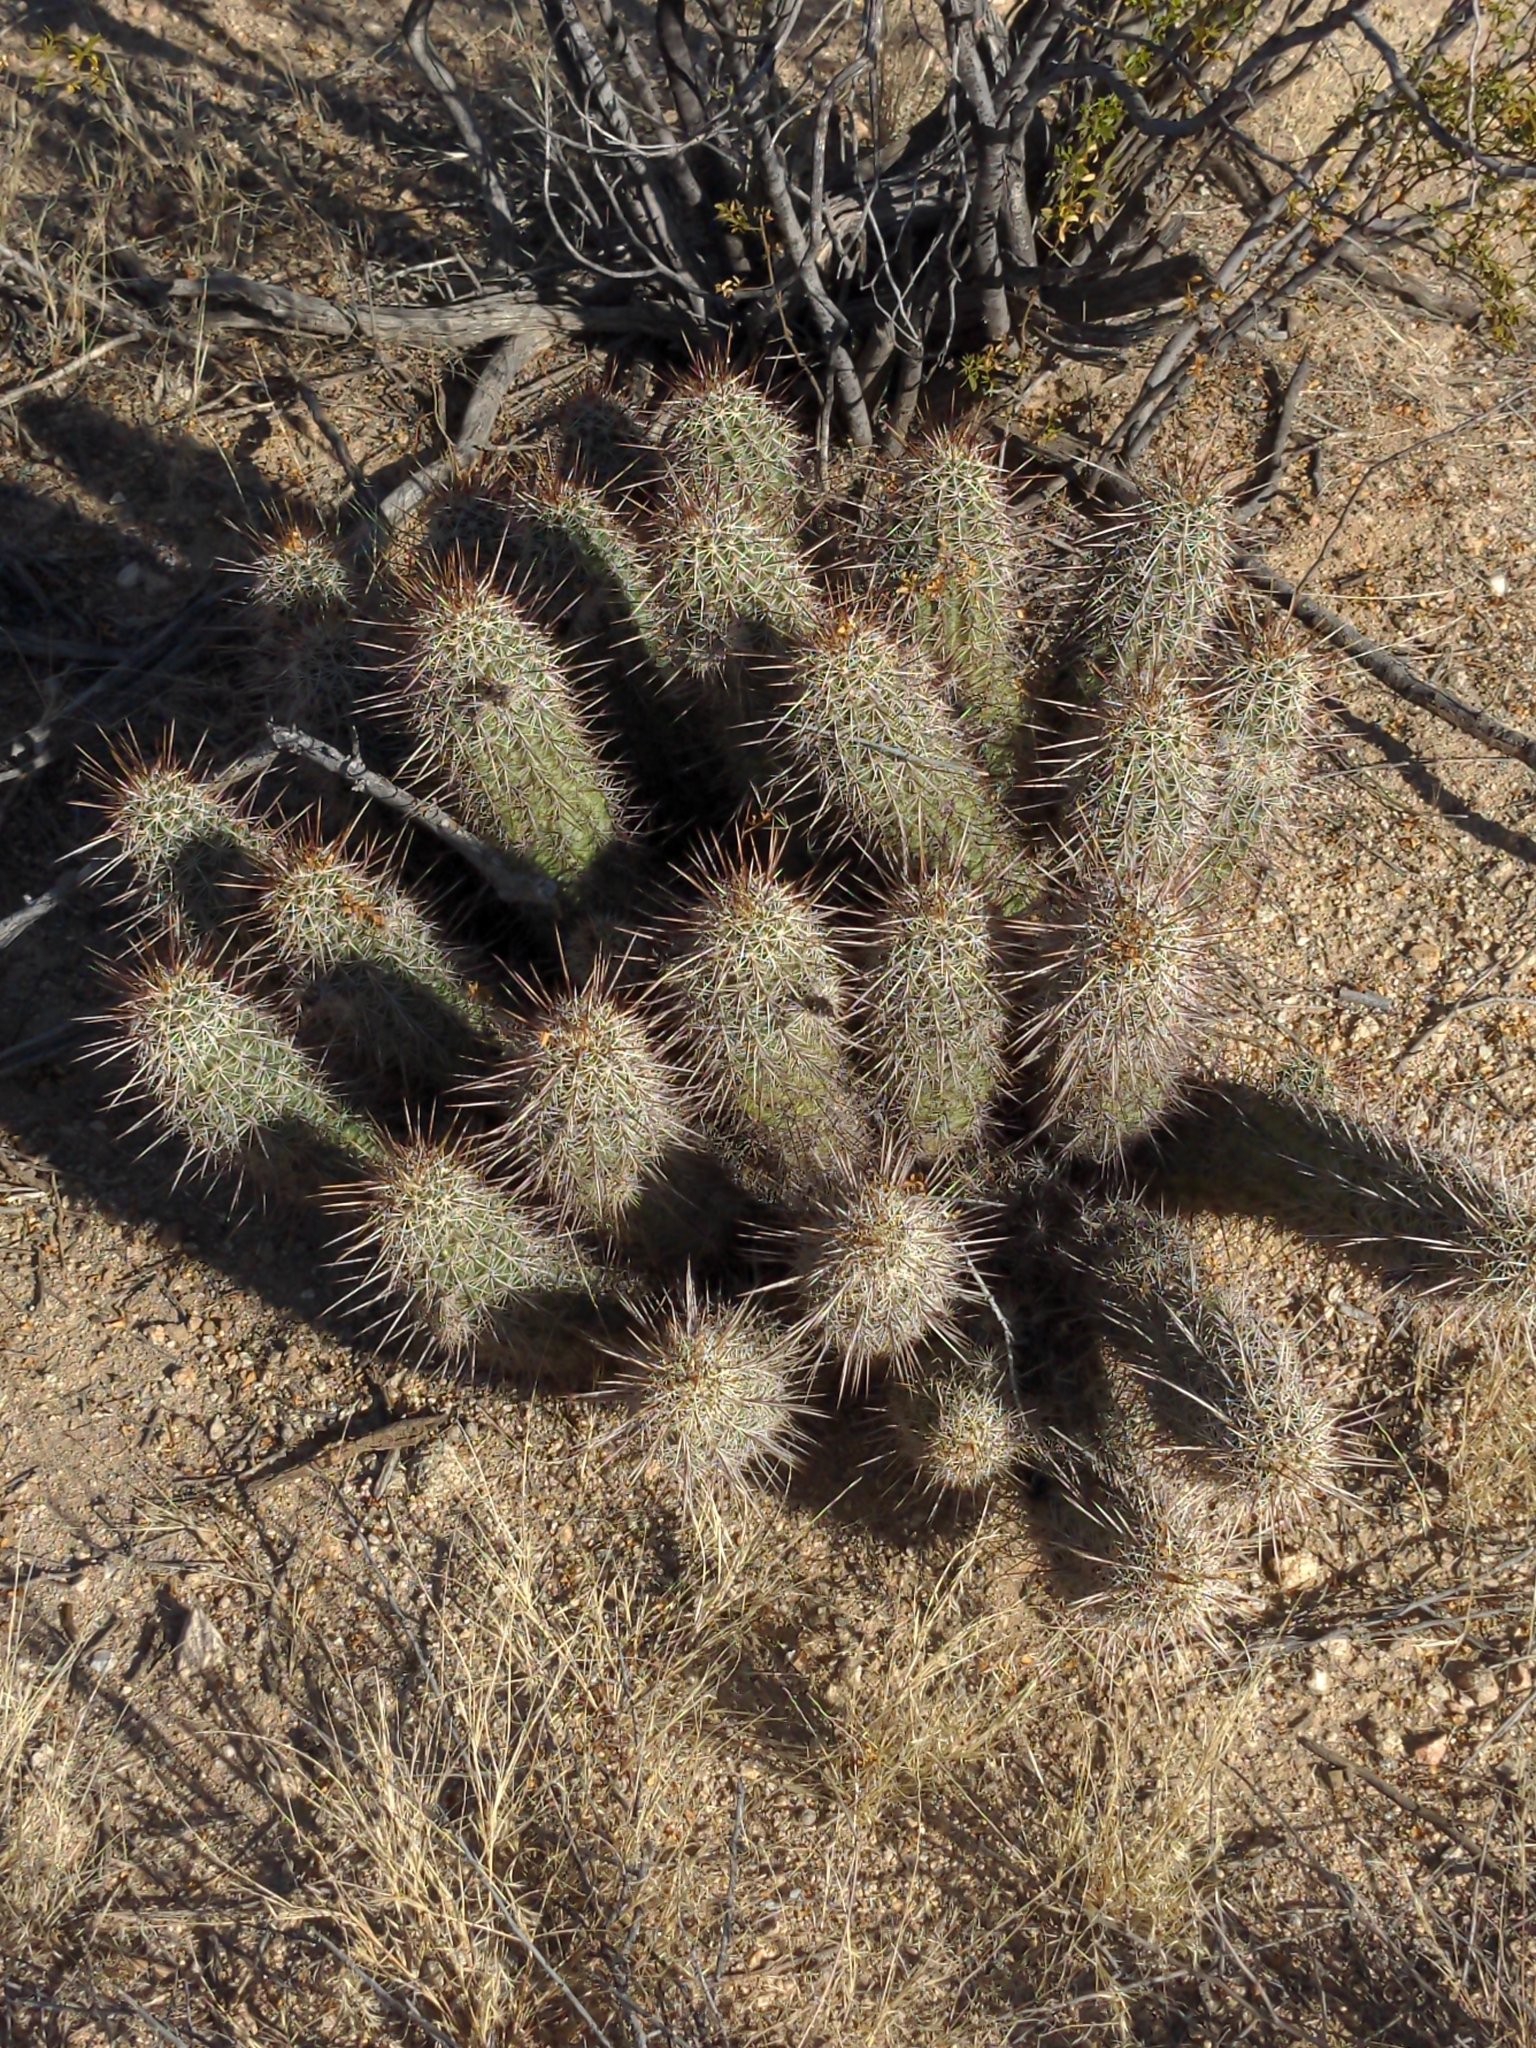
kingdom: Plantae
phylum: Tracheophyta
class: Magnoliopsida
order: Caryophyllales
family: Cactaceae
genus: Echinocereus
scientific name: Echinocereus engelmannii
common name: Engelmann's hedgehog cactus
